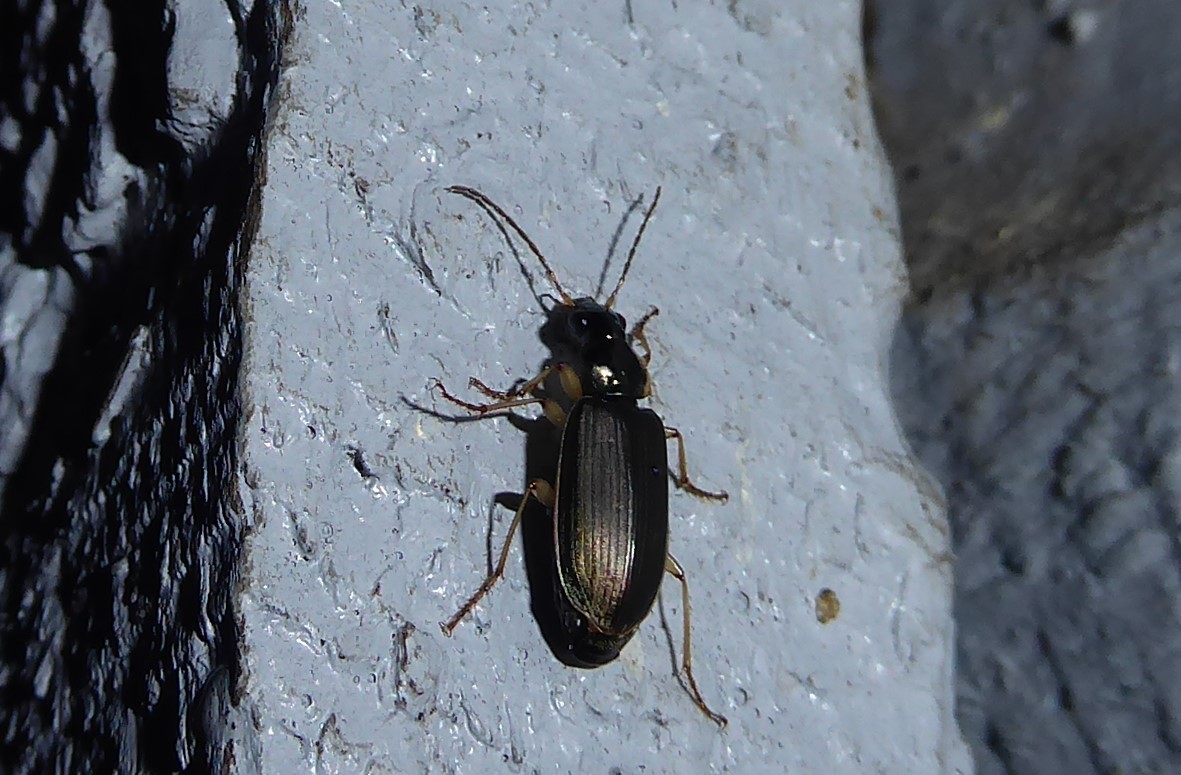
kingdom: Animalia
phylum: Arthropoda
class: Insecta
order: Coleoptera
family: Carabidae
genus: Notagonum
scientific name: Notagonum submetallicum
